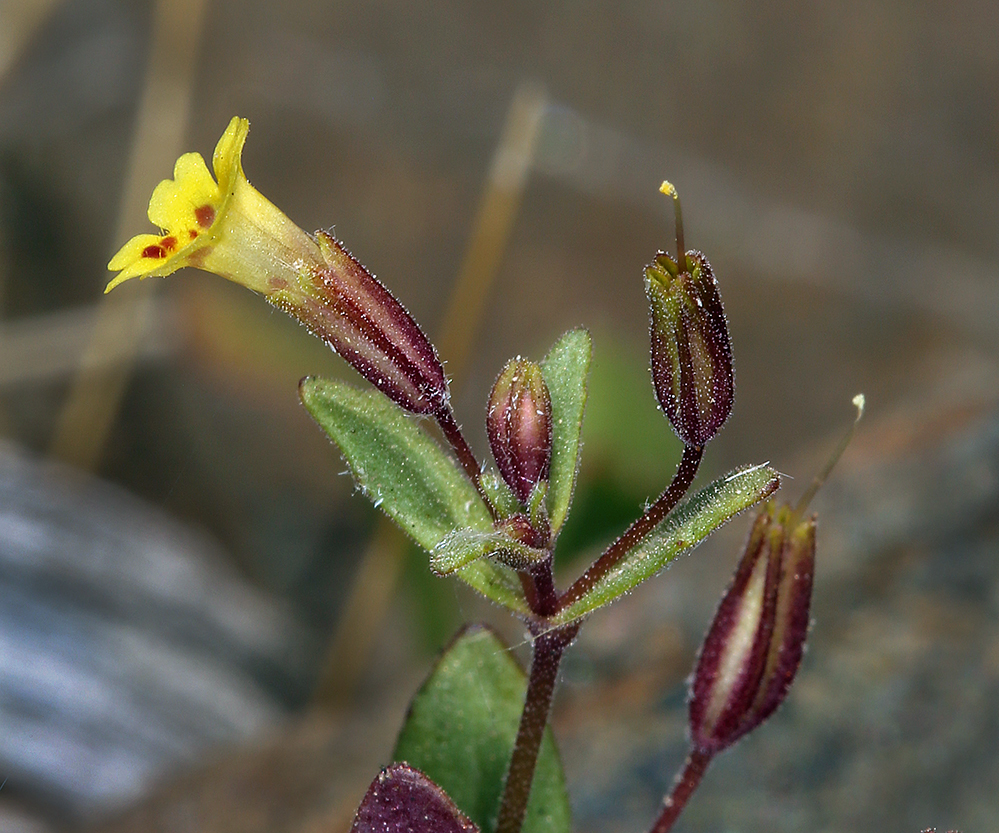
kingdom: Plantae
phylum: Tracheophyta
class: Magnoliopsida
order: Lamiales
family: Phrymaceae
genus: Erythranthe
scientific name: Erythranthe rubella
